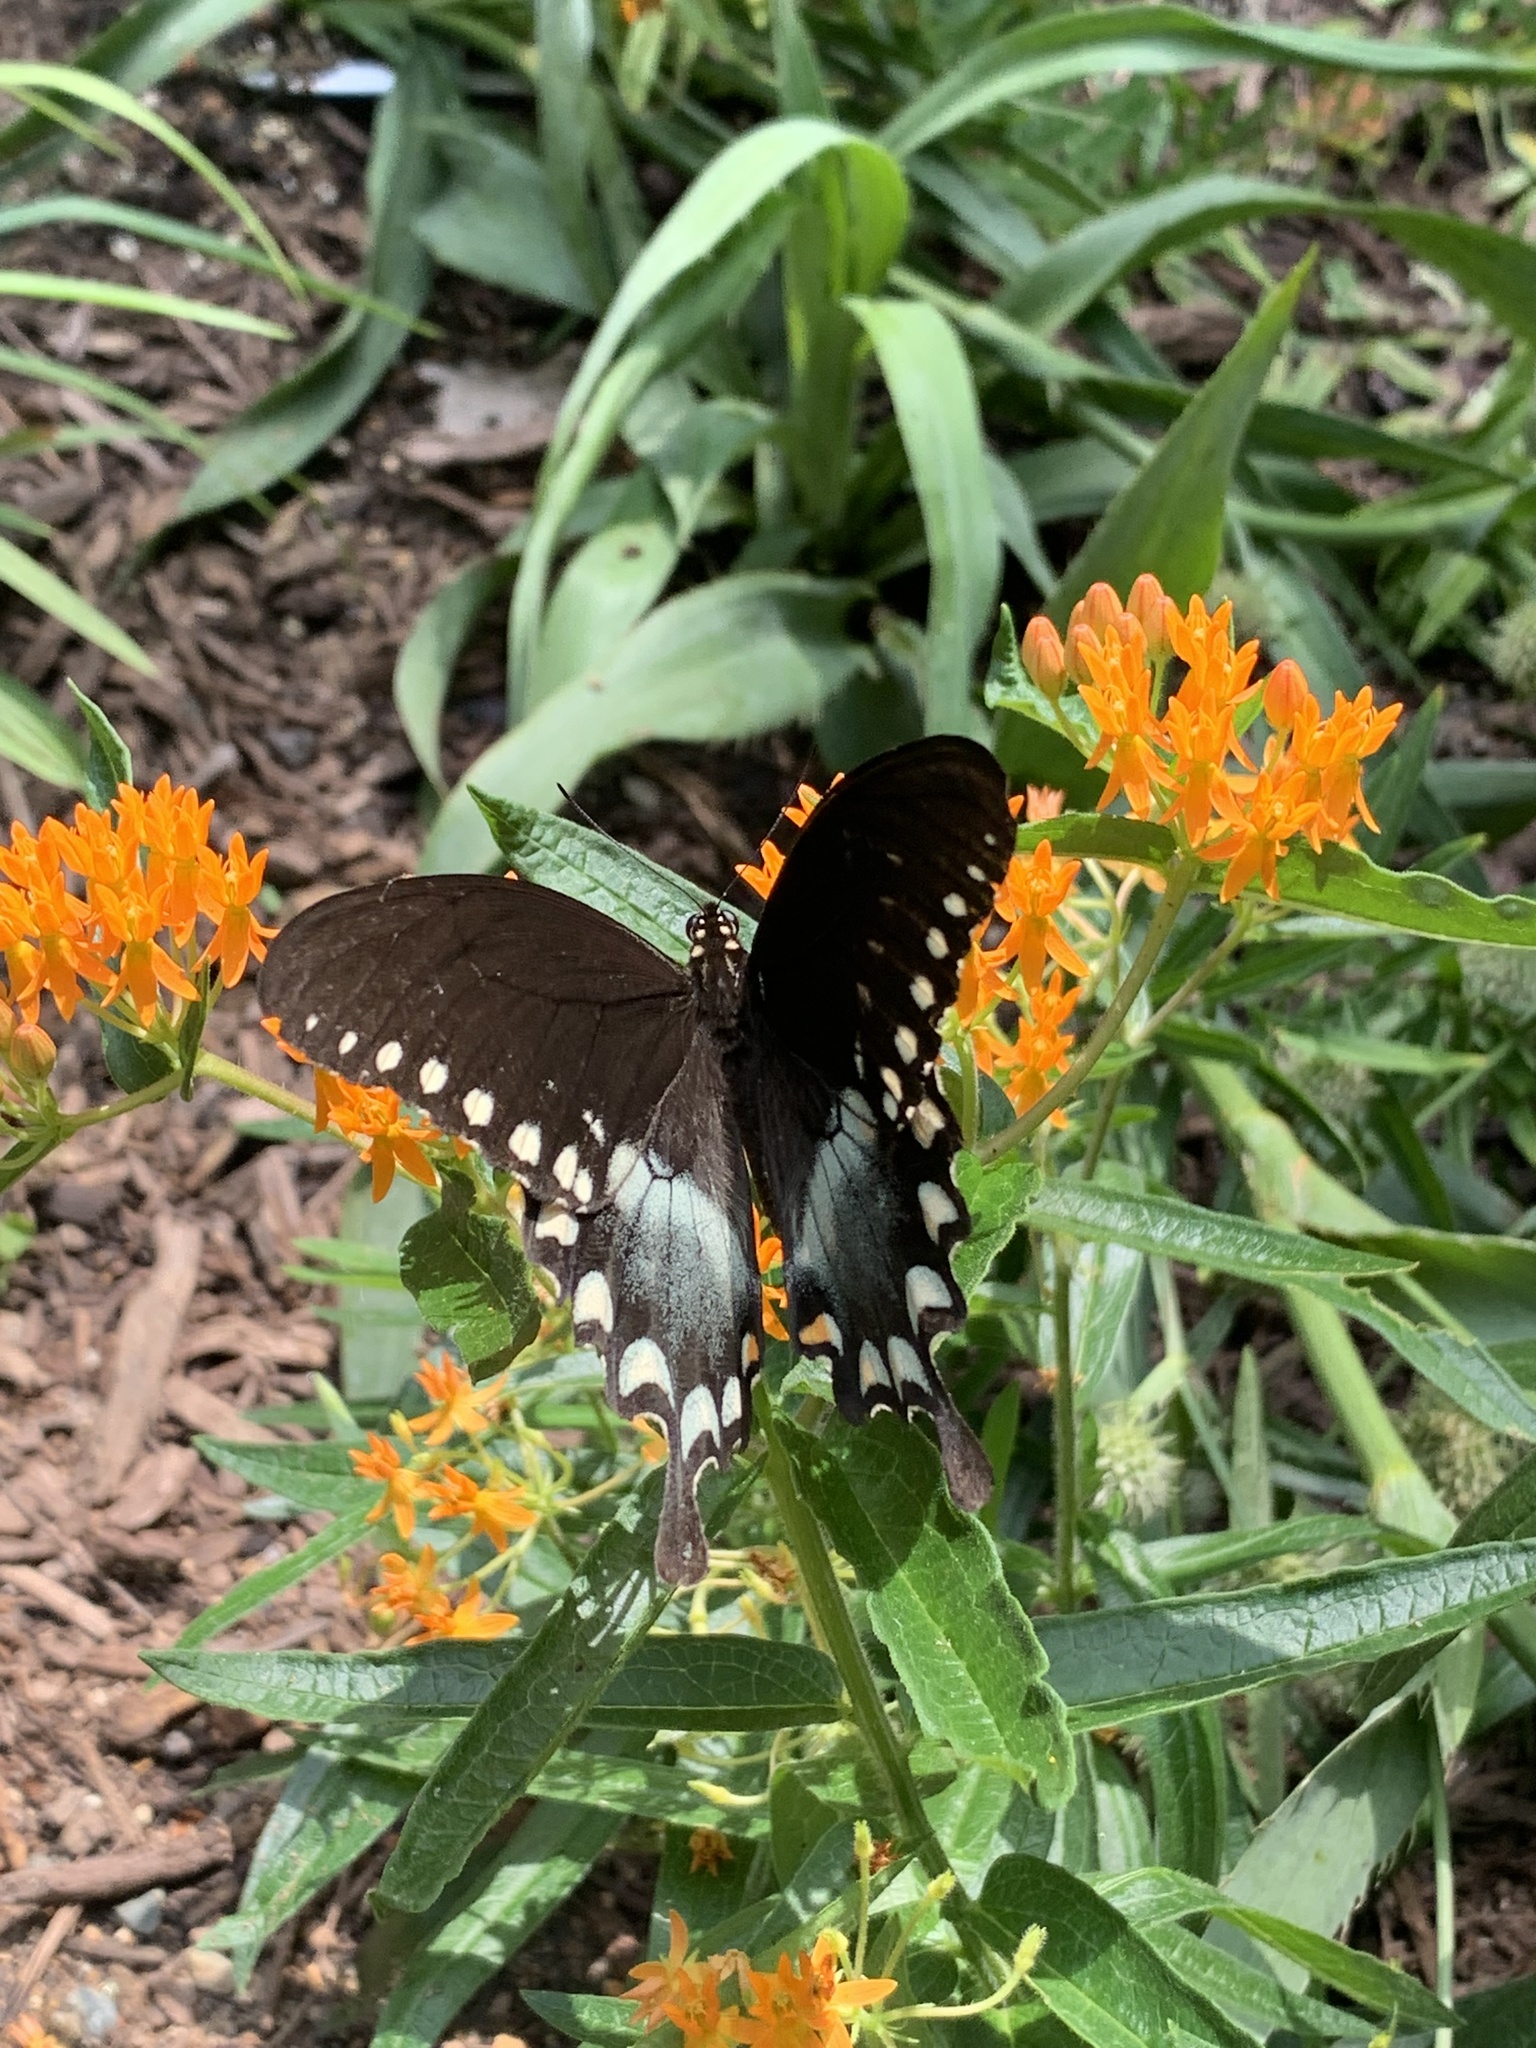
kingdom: Animalia
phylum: Arthropoda
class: Insecta
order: Lepidoptera
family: Papilionidae
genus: Papilio
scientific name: Papilio troilus
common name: Spicebush swallowtail
